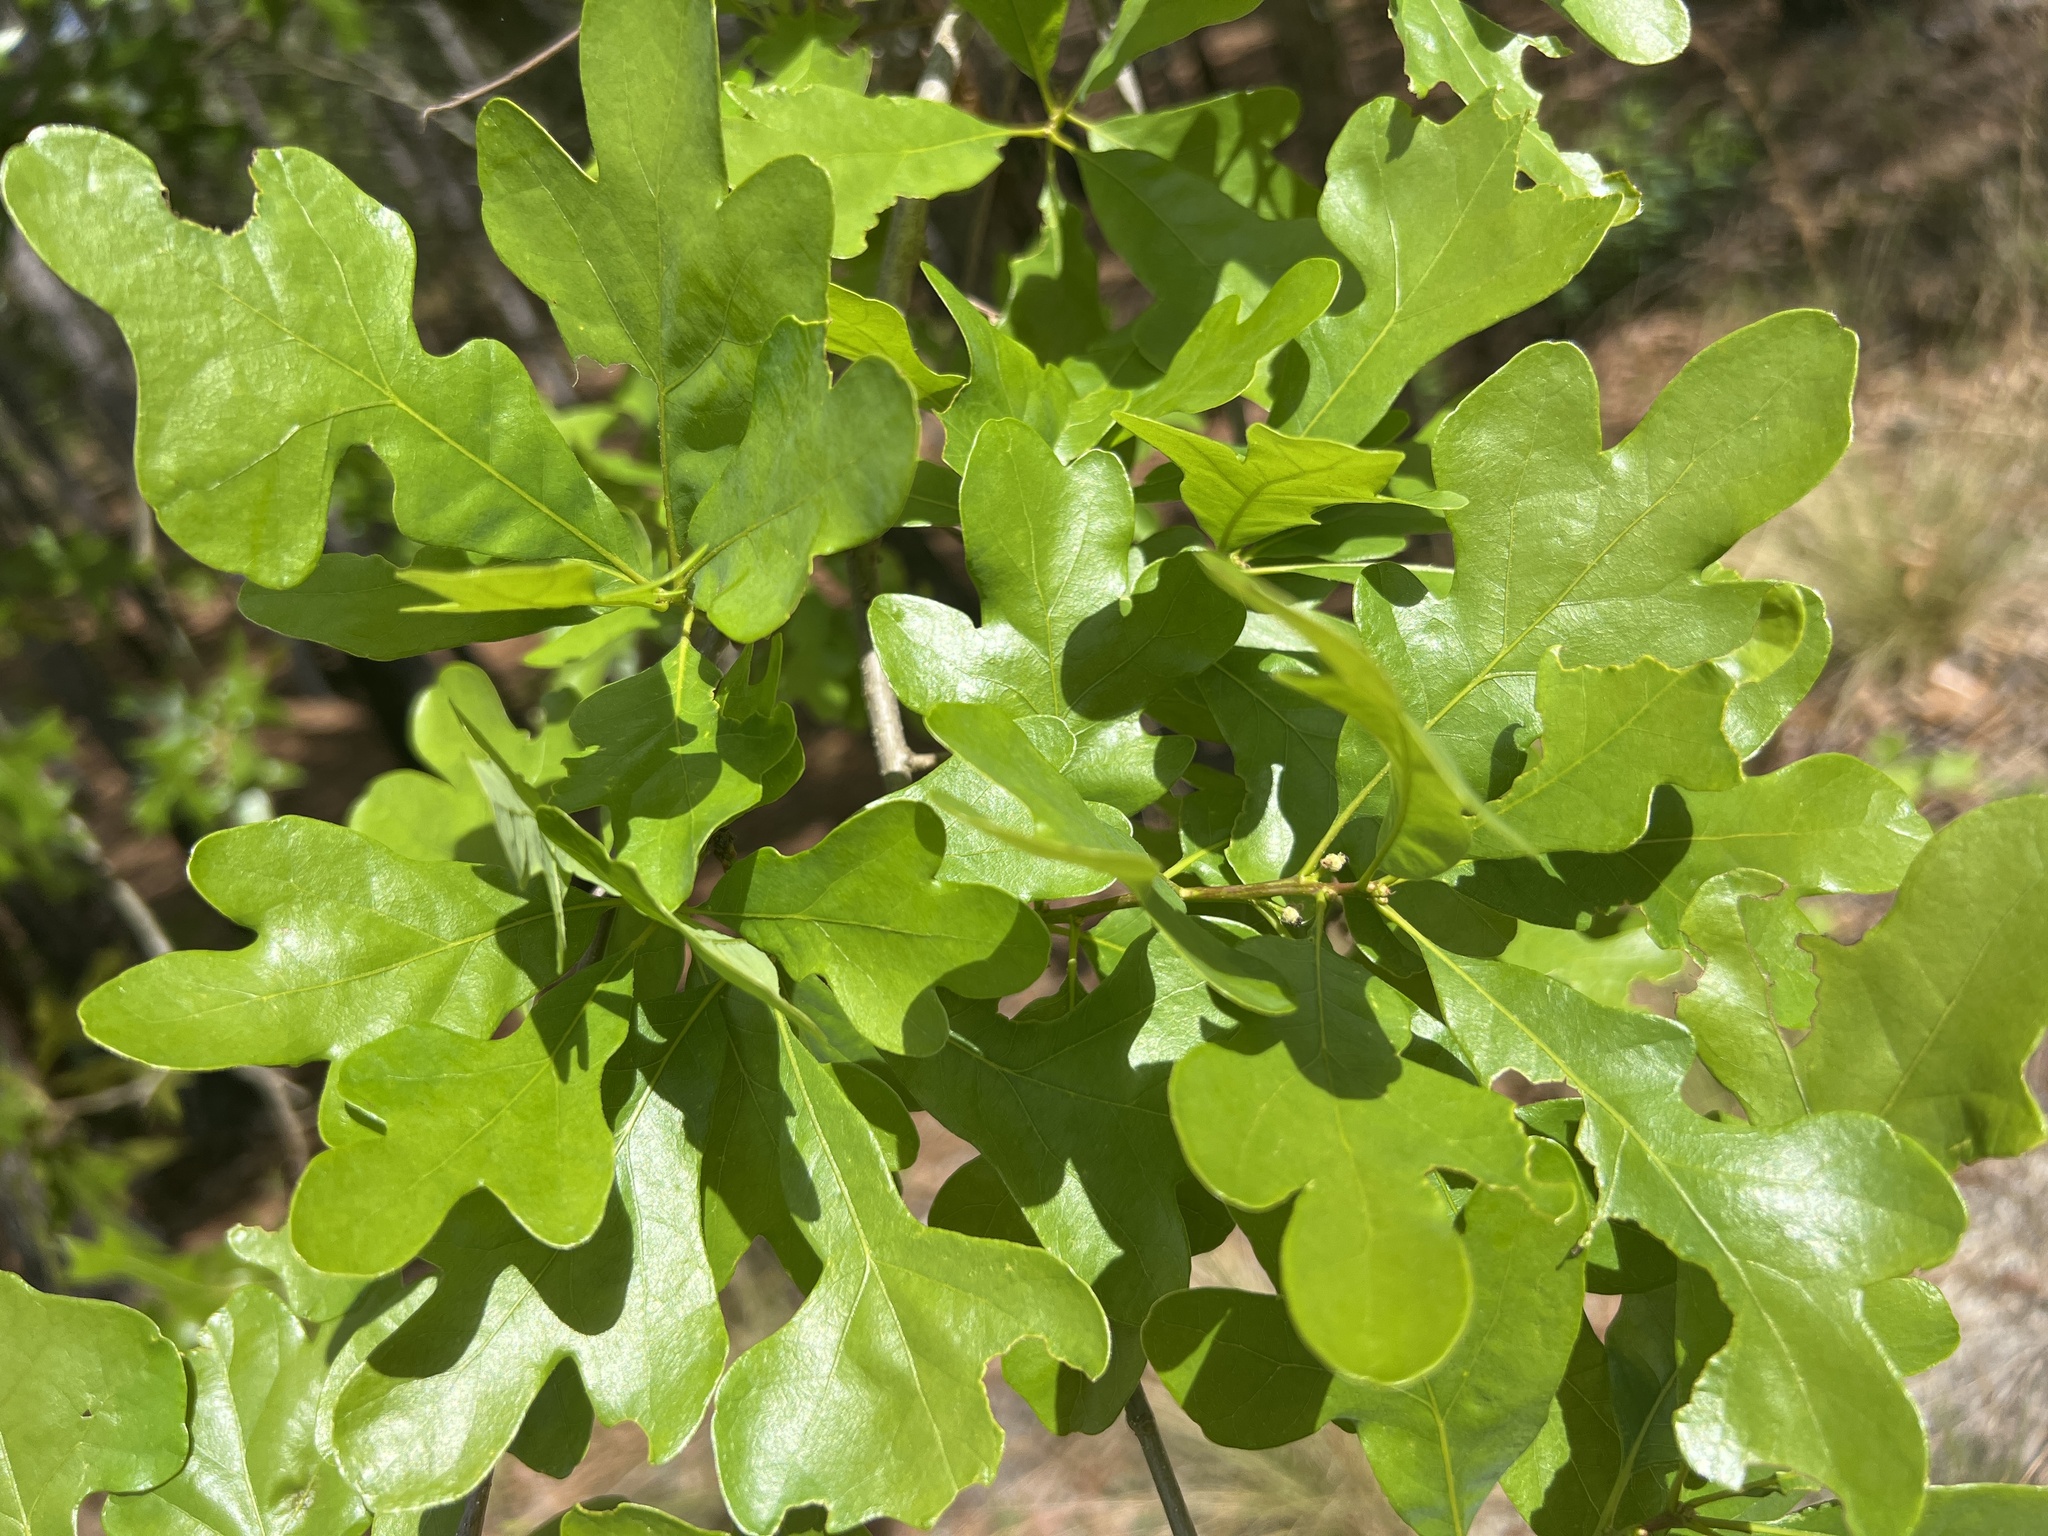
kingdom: Plantae
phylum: Tracheophyta
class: Magnoliopsida
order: Fagales
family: Fagaceae
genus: Quercus
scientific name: Quercus margaretiae
